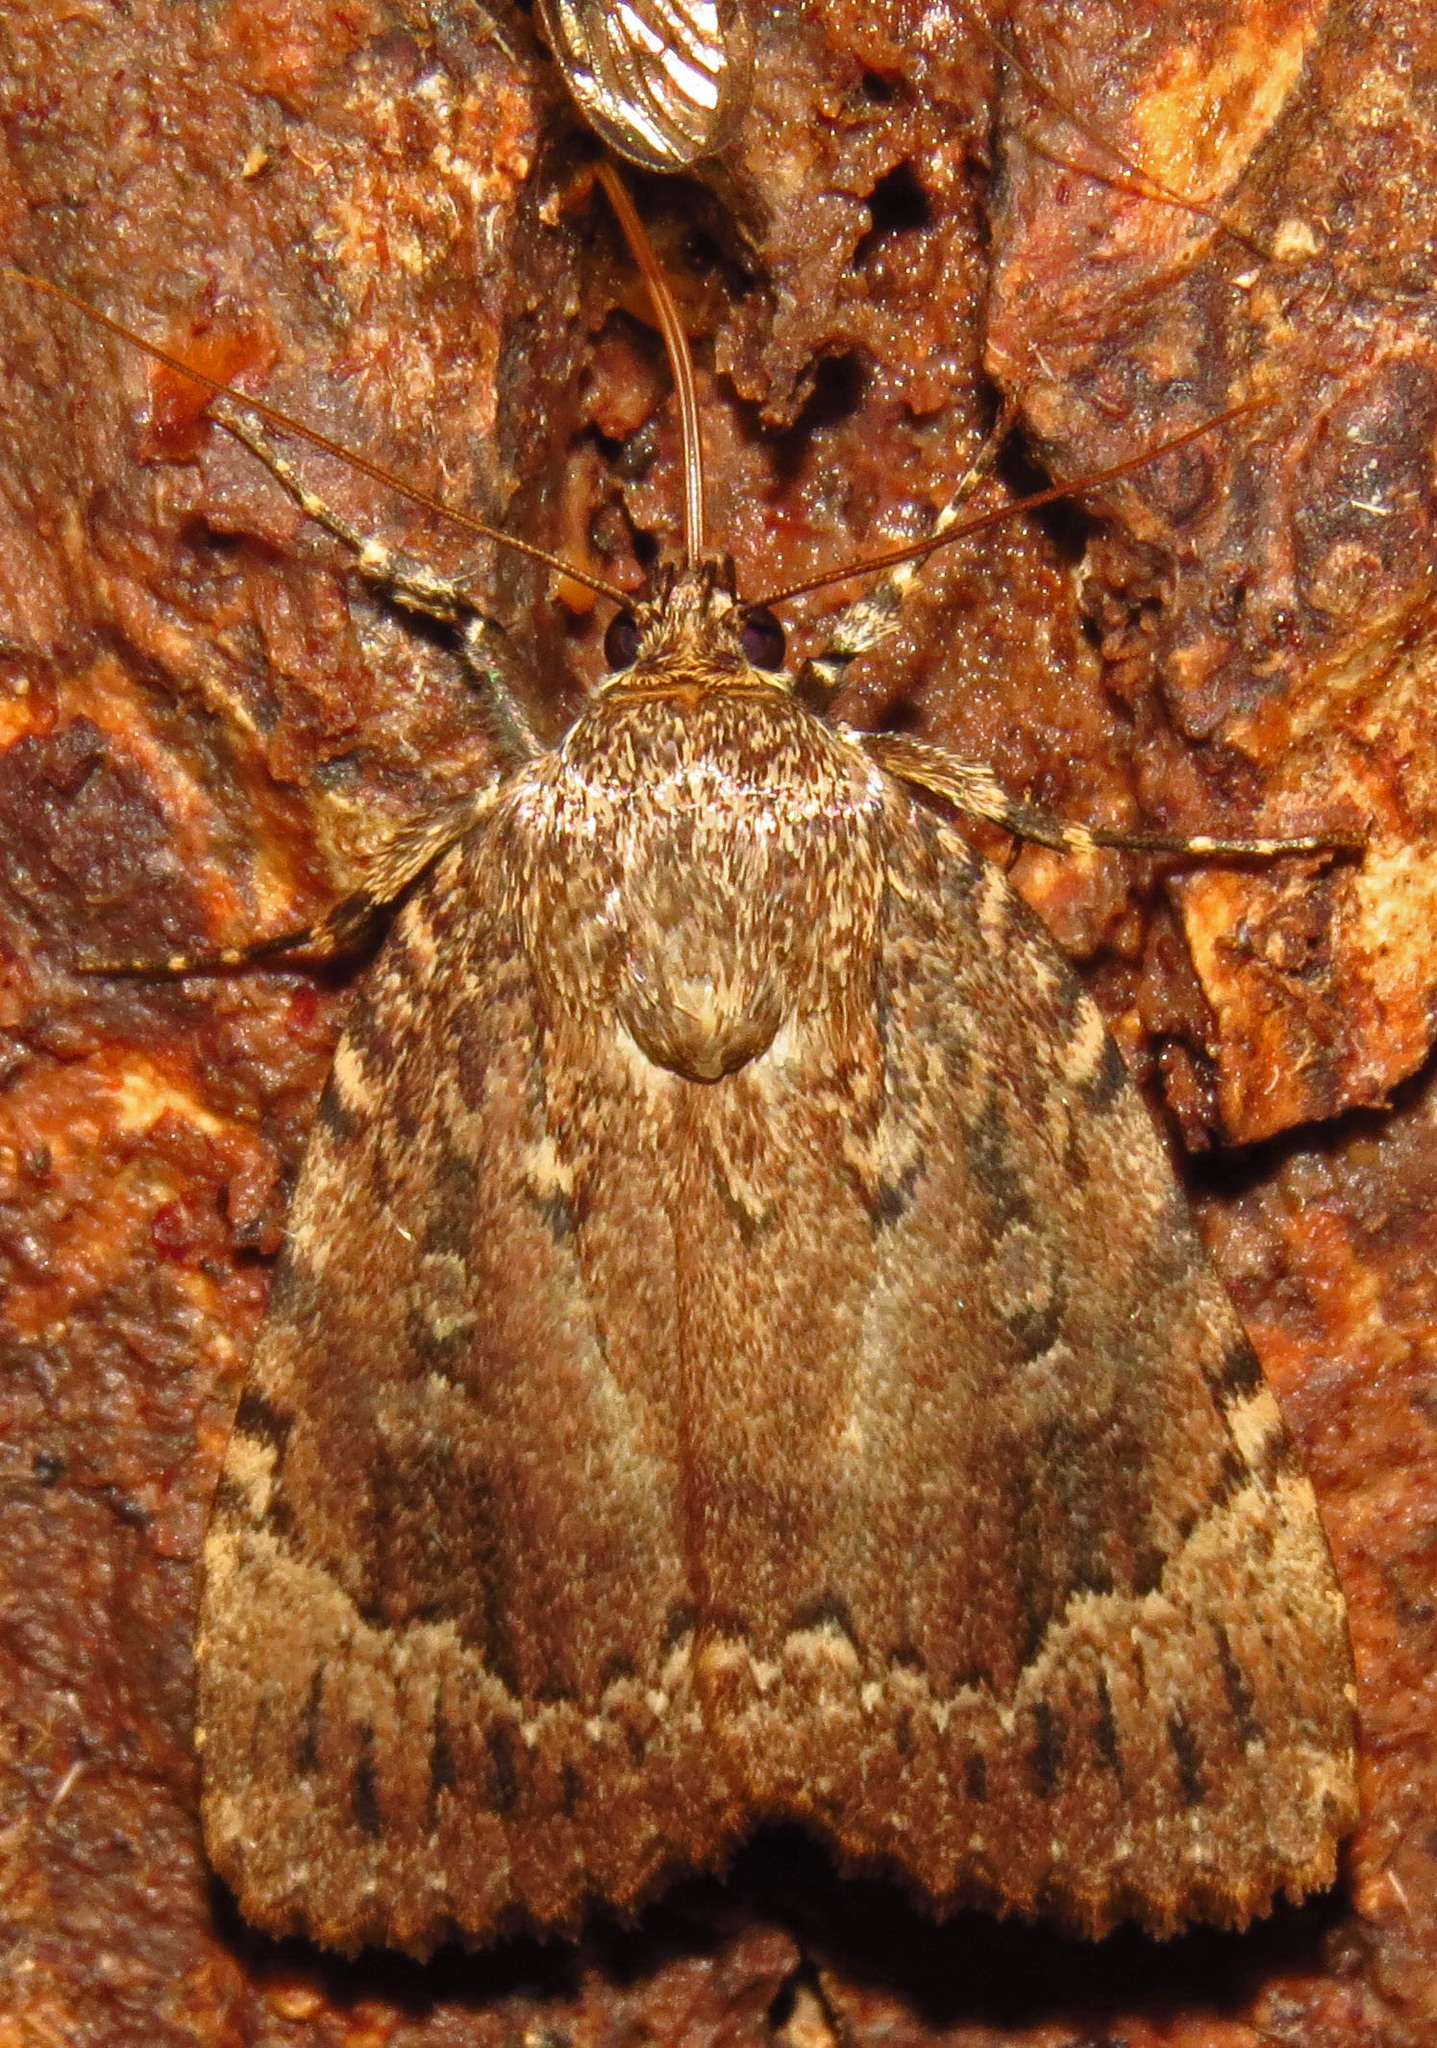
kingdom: Animalia
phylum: Arthropoda
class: Insecta
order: Lepidoptera
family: Noctuidae
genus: Amphipyra
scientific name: Amphipyra pyramidoides
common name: American copper underwing
